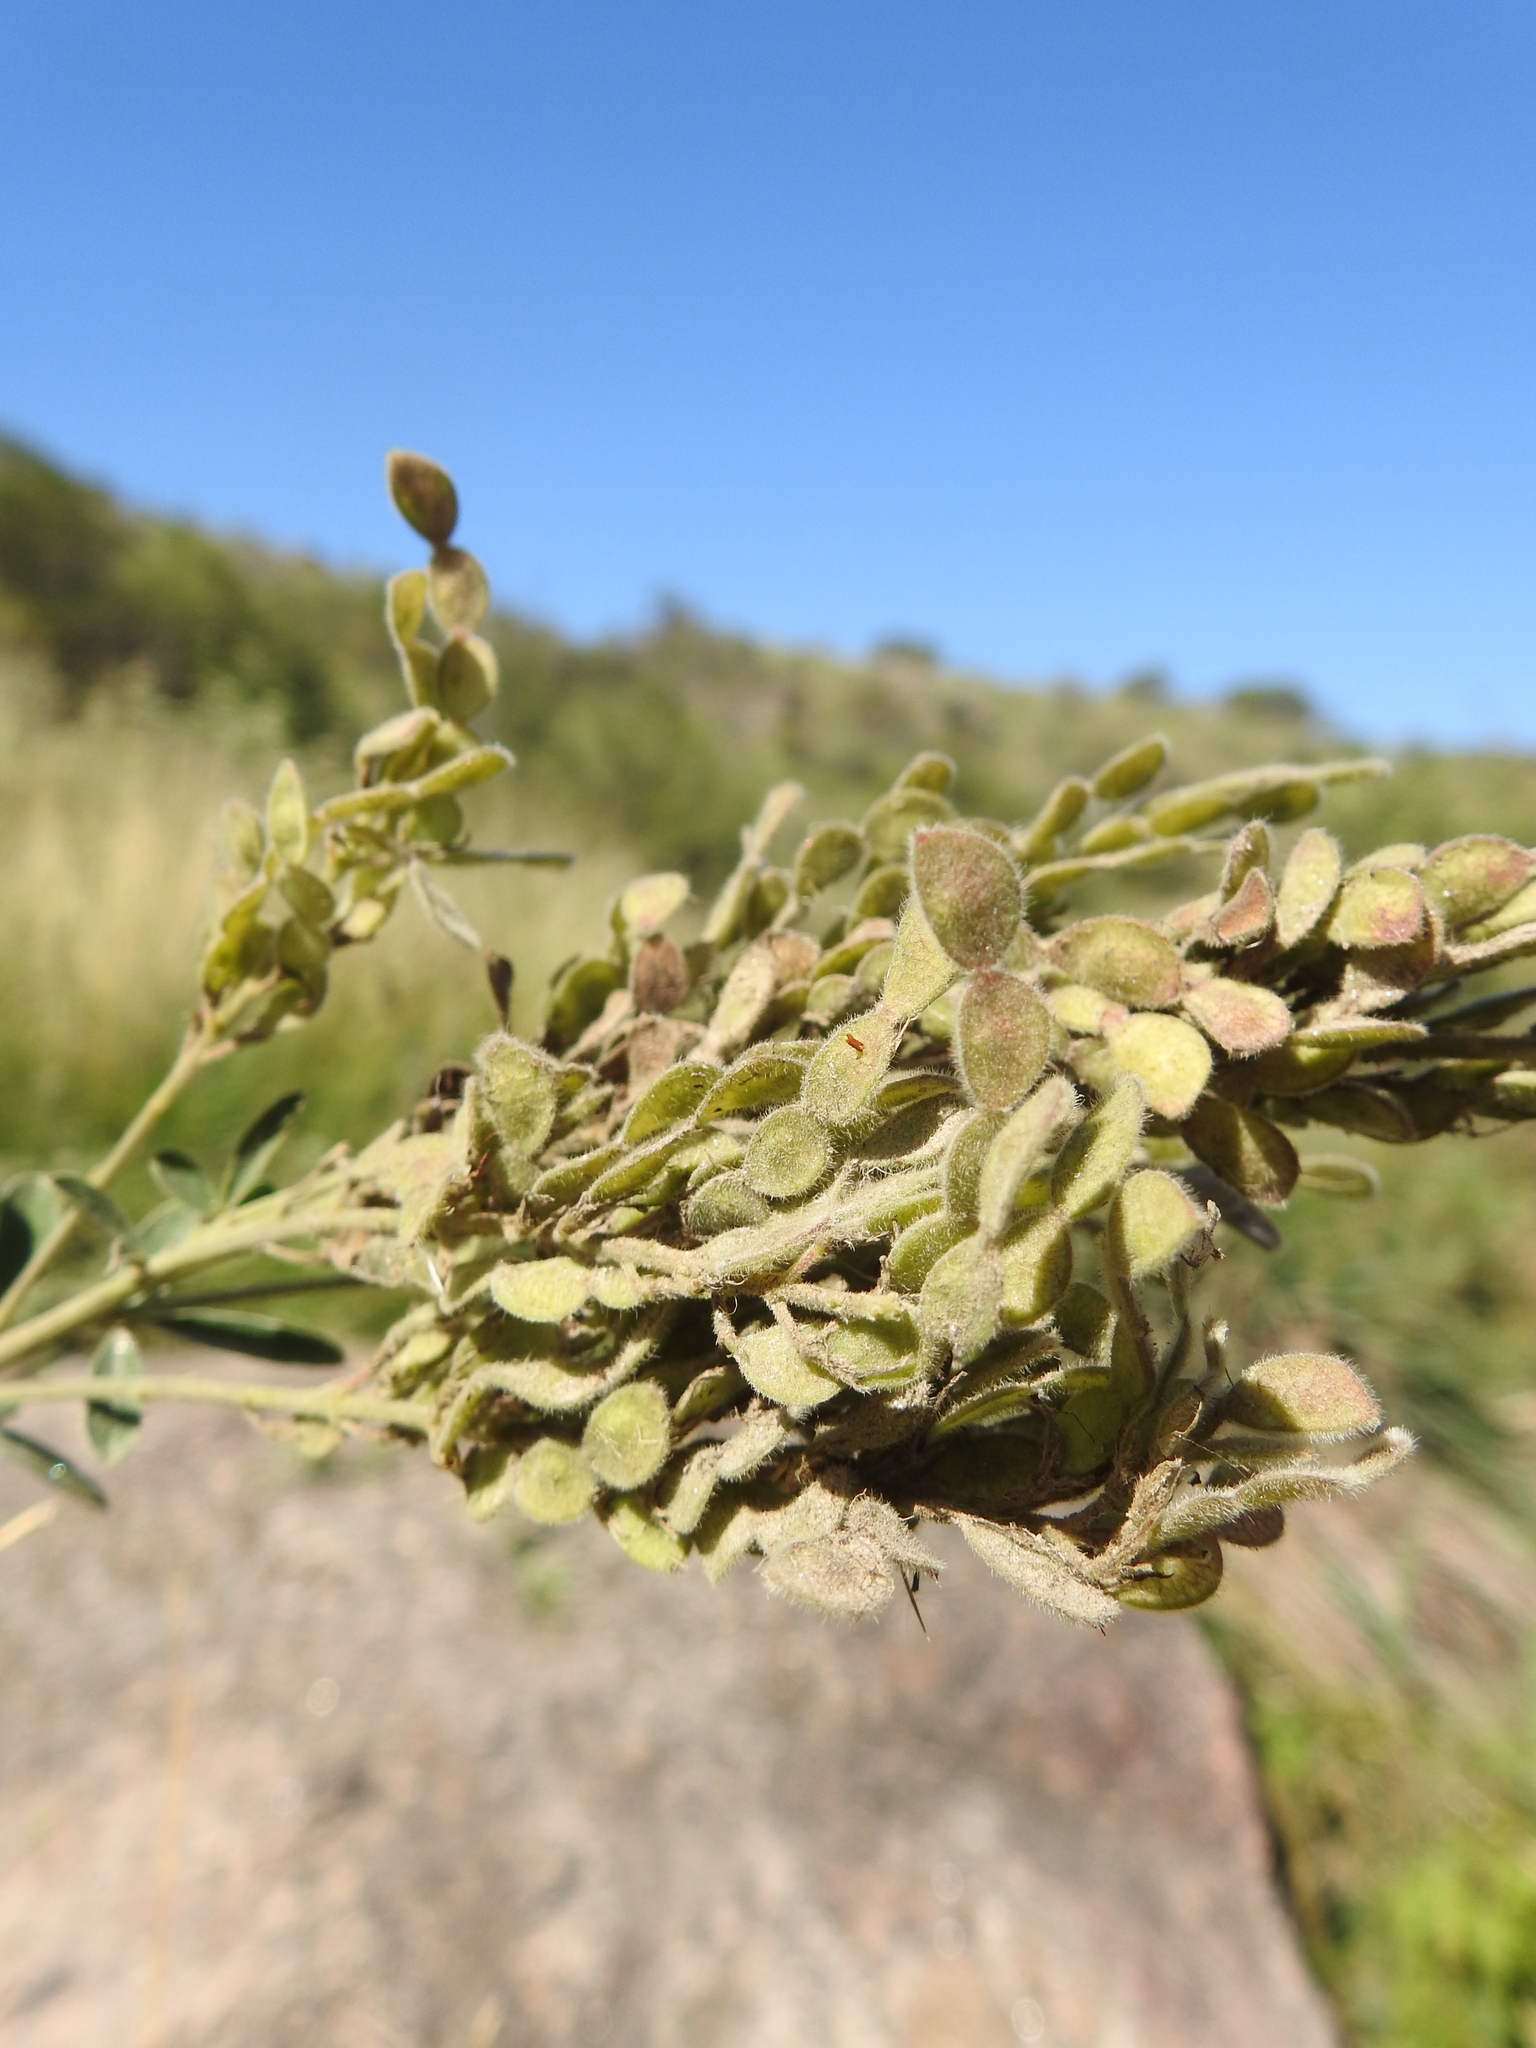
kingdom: Plantae
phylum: Tracheophyta
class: Magnoliopsida
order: Fabales
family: Fabaceae
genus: Desmodium
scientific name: Desmodium cuneatum
